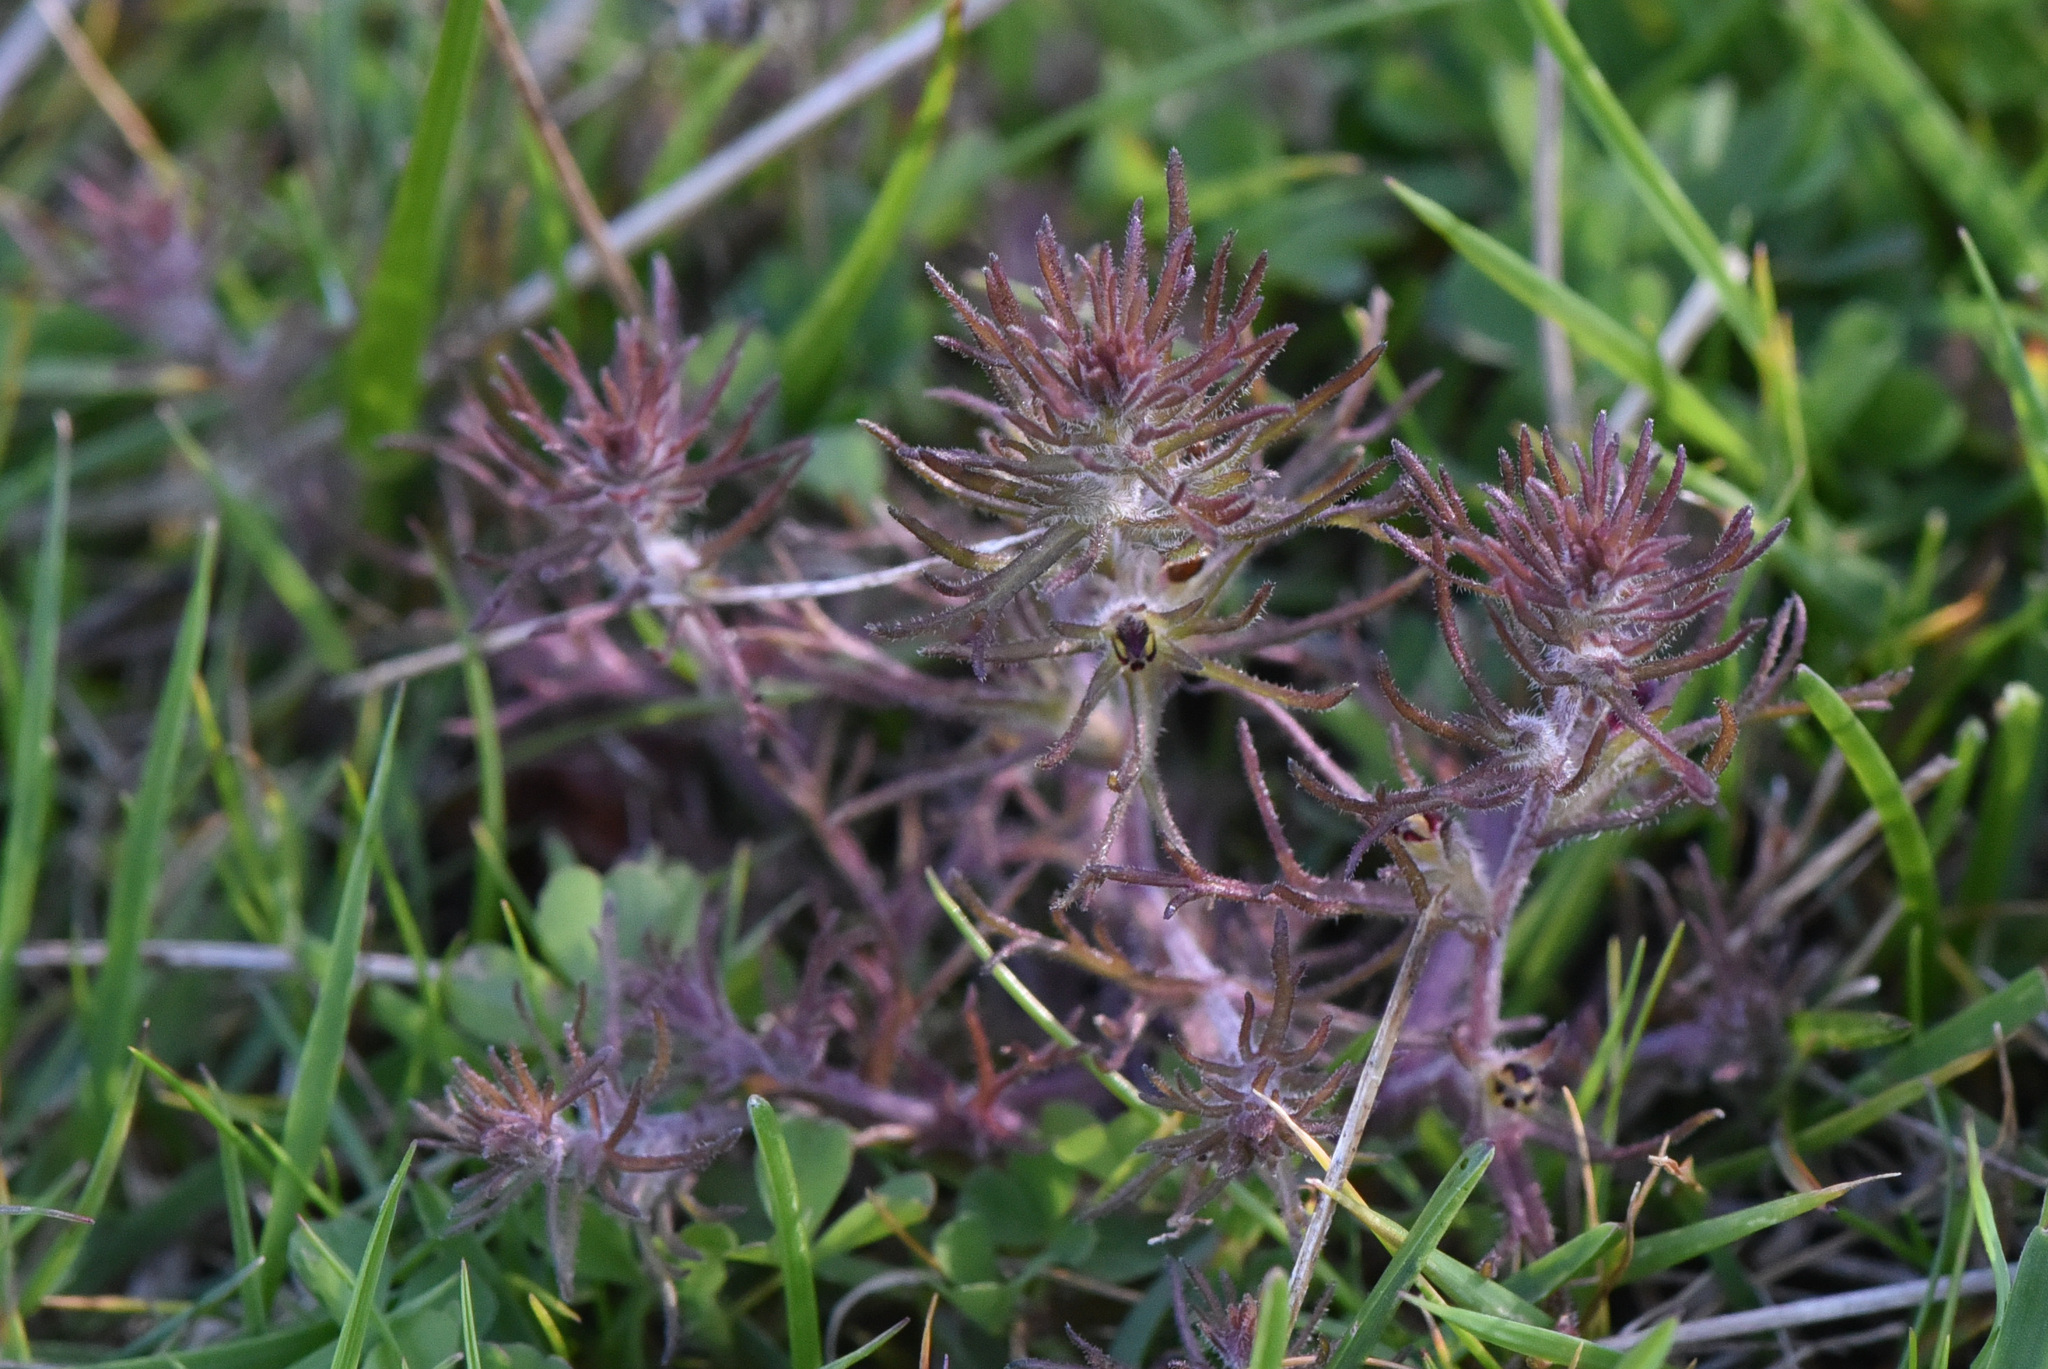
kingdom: Plantae
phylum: Tracheophyta
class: Magnoliopsida
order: Lamiales
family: Orobanchaceae
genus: Triphysaria
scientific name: Triphysaria pusilla
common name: Dwarf false owl-clover
